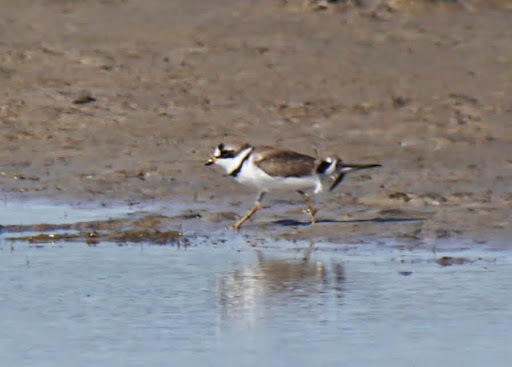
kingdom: Animalia
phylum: Chordata
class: Aves
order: Charadriiformes
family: Charadriidae
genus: Charadrius
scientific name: Charadrius semipalmatus
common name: Semipalmated plover
